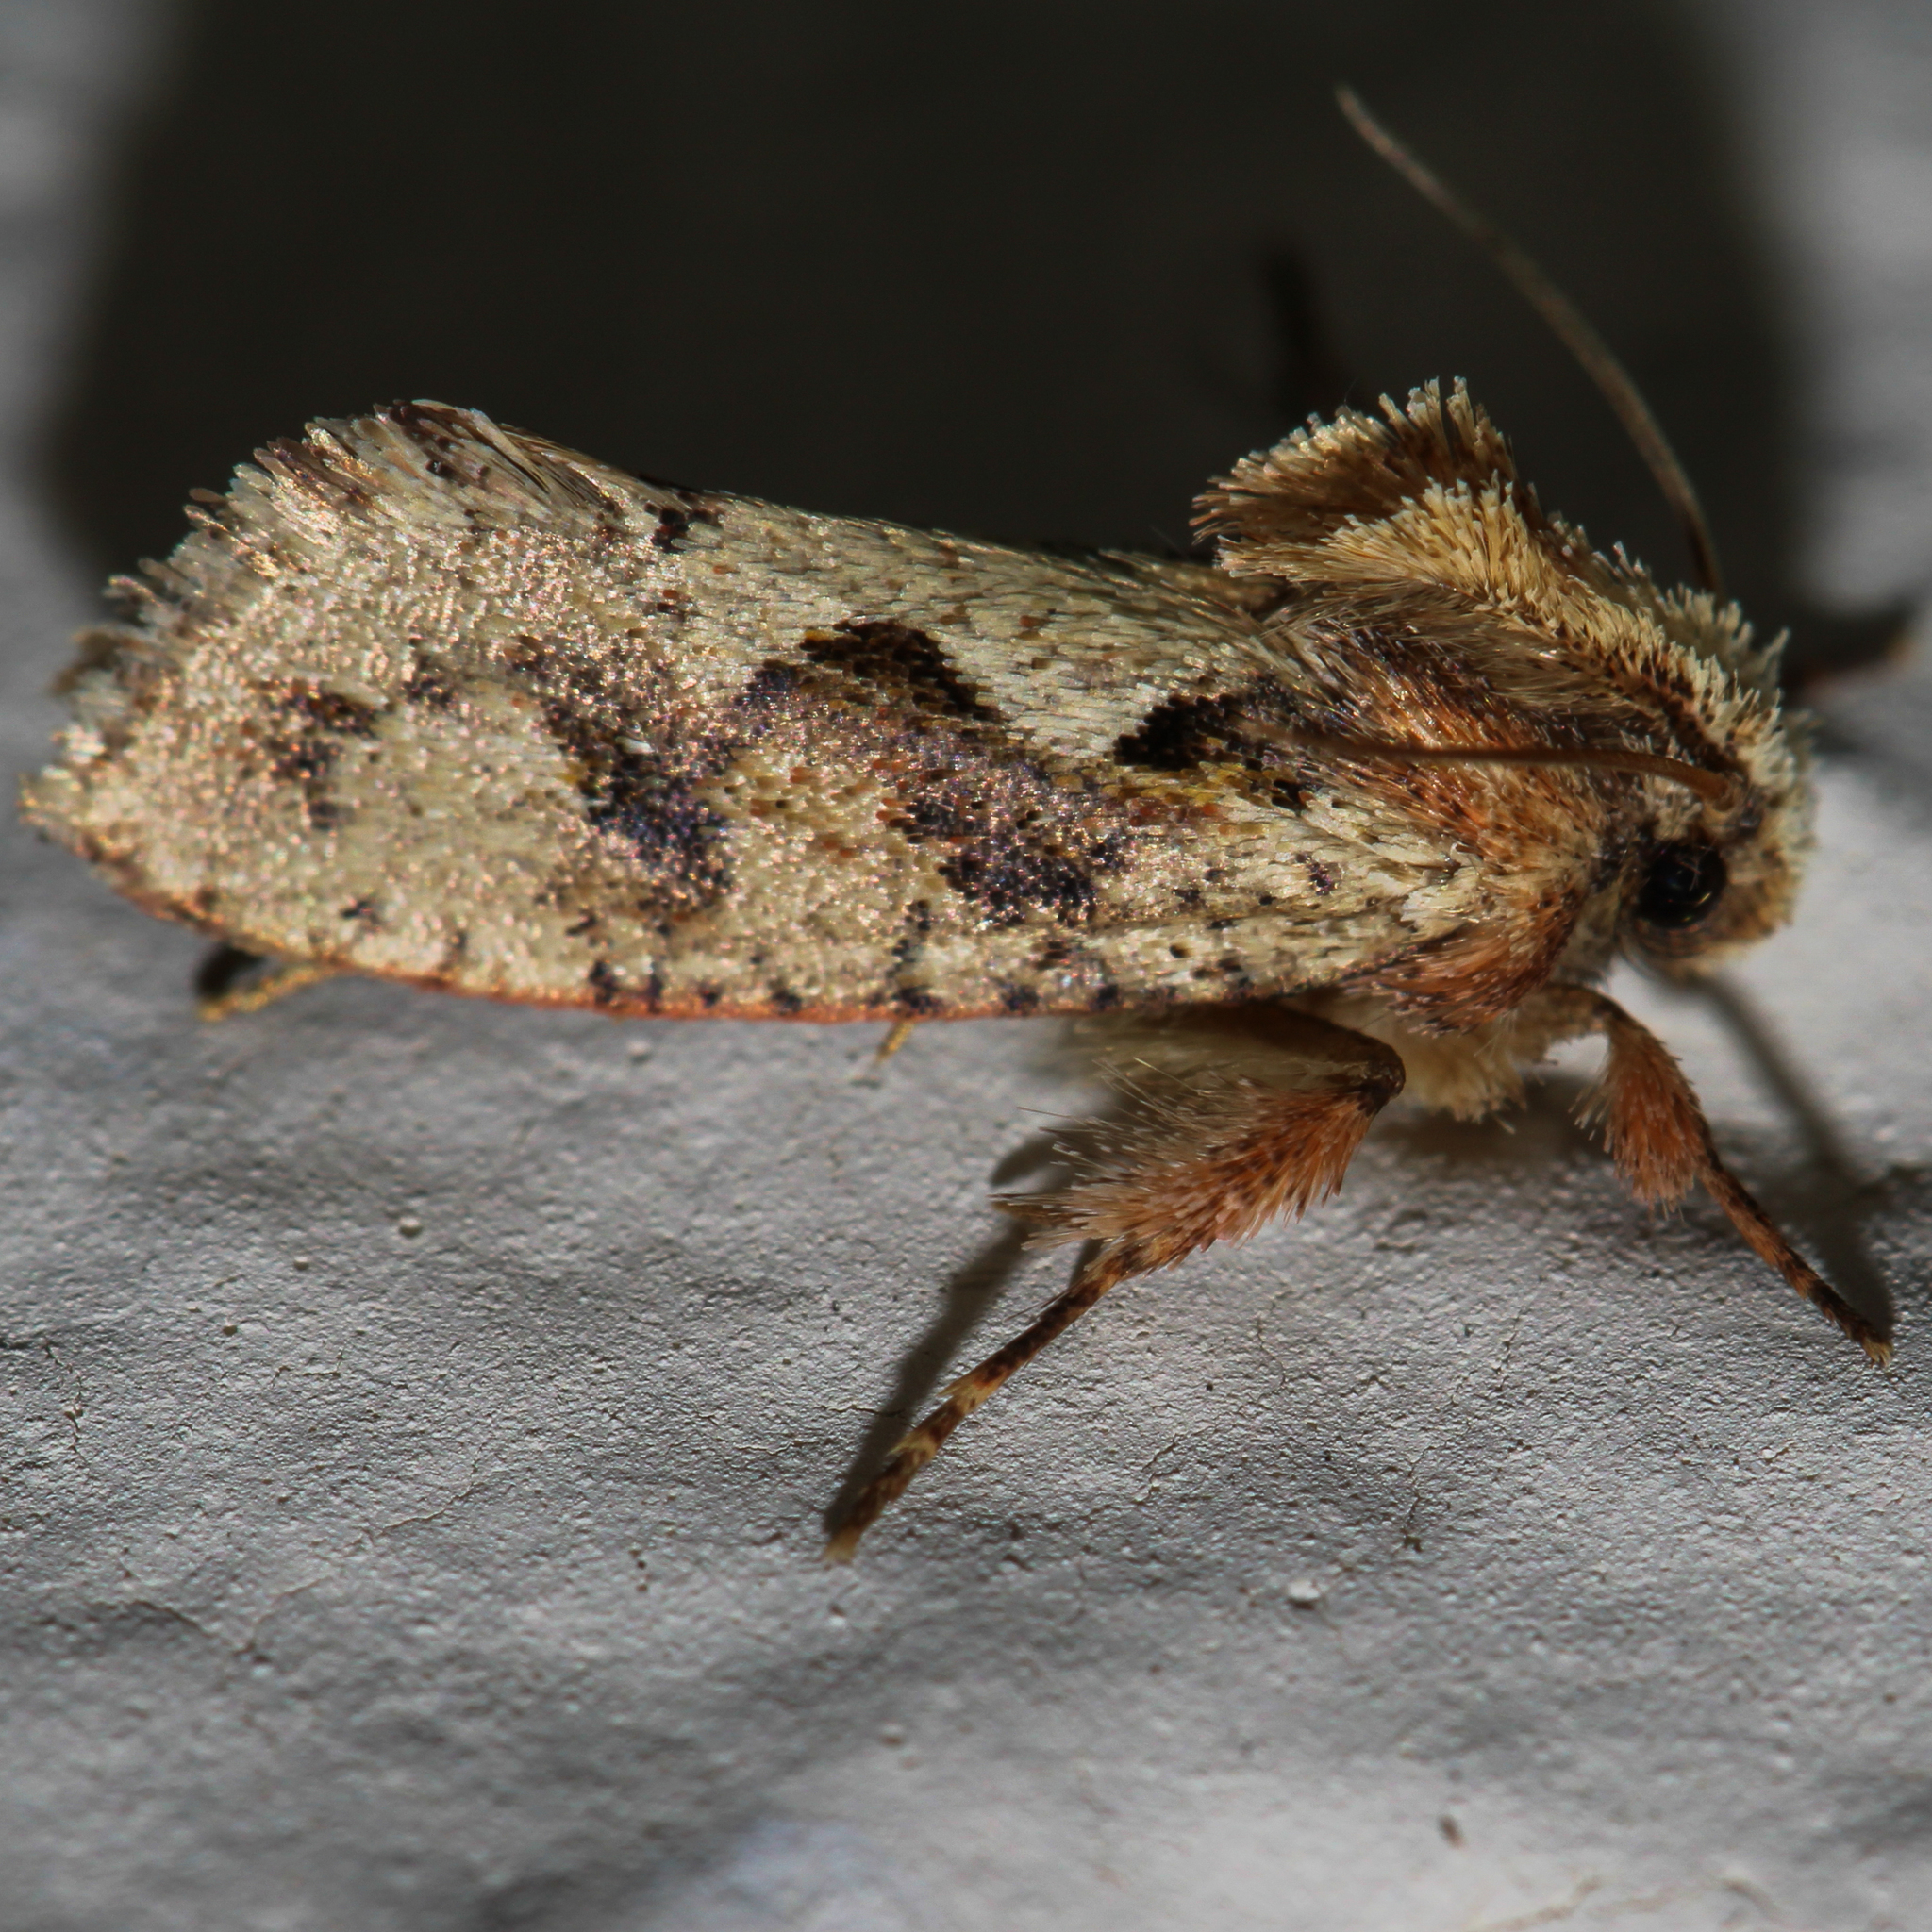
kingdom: Animalia
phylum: Arthropoda
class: Insecta
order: Lepidoptera
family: Tineidae
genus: Acrolophus
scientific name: Acrolophus walsinghami
